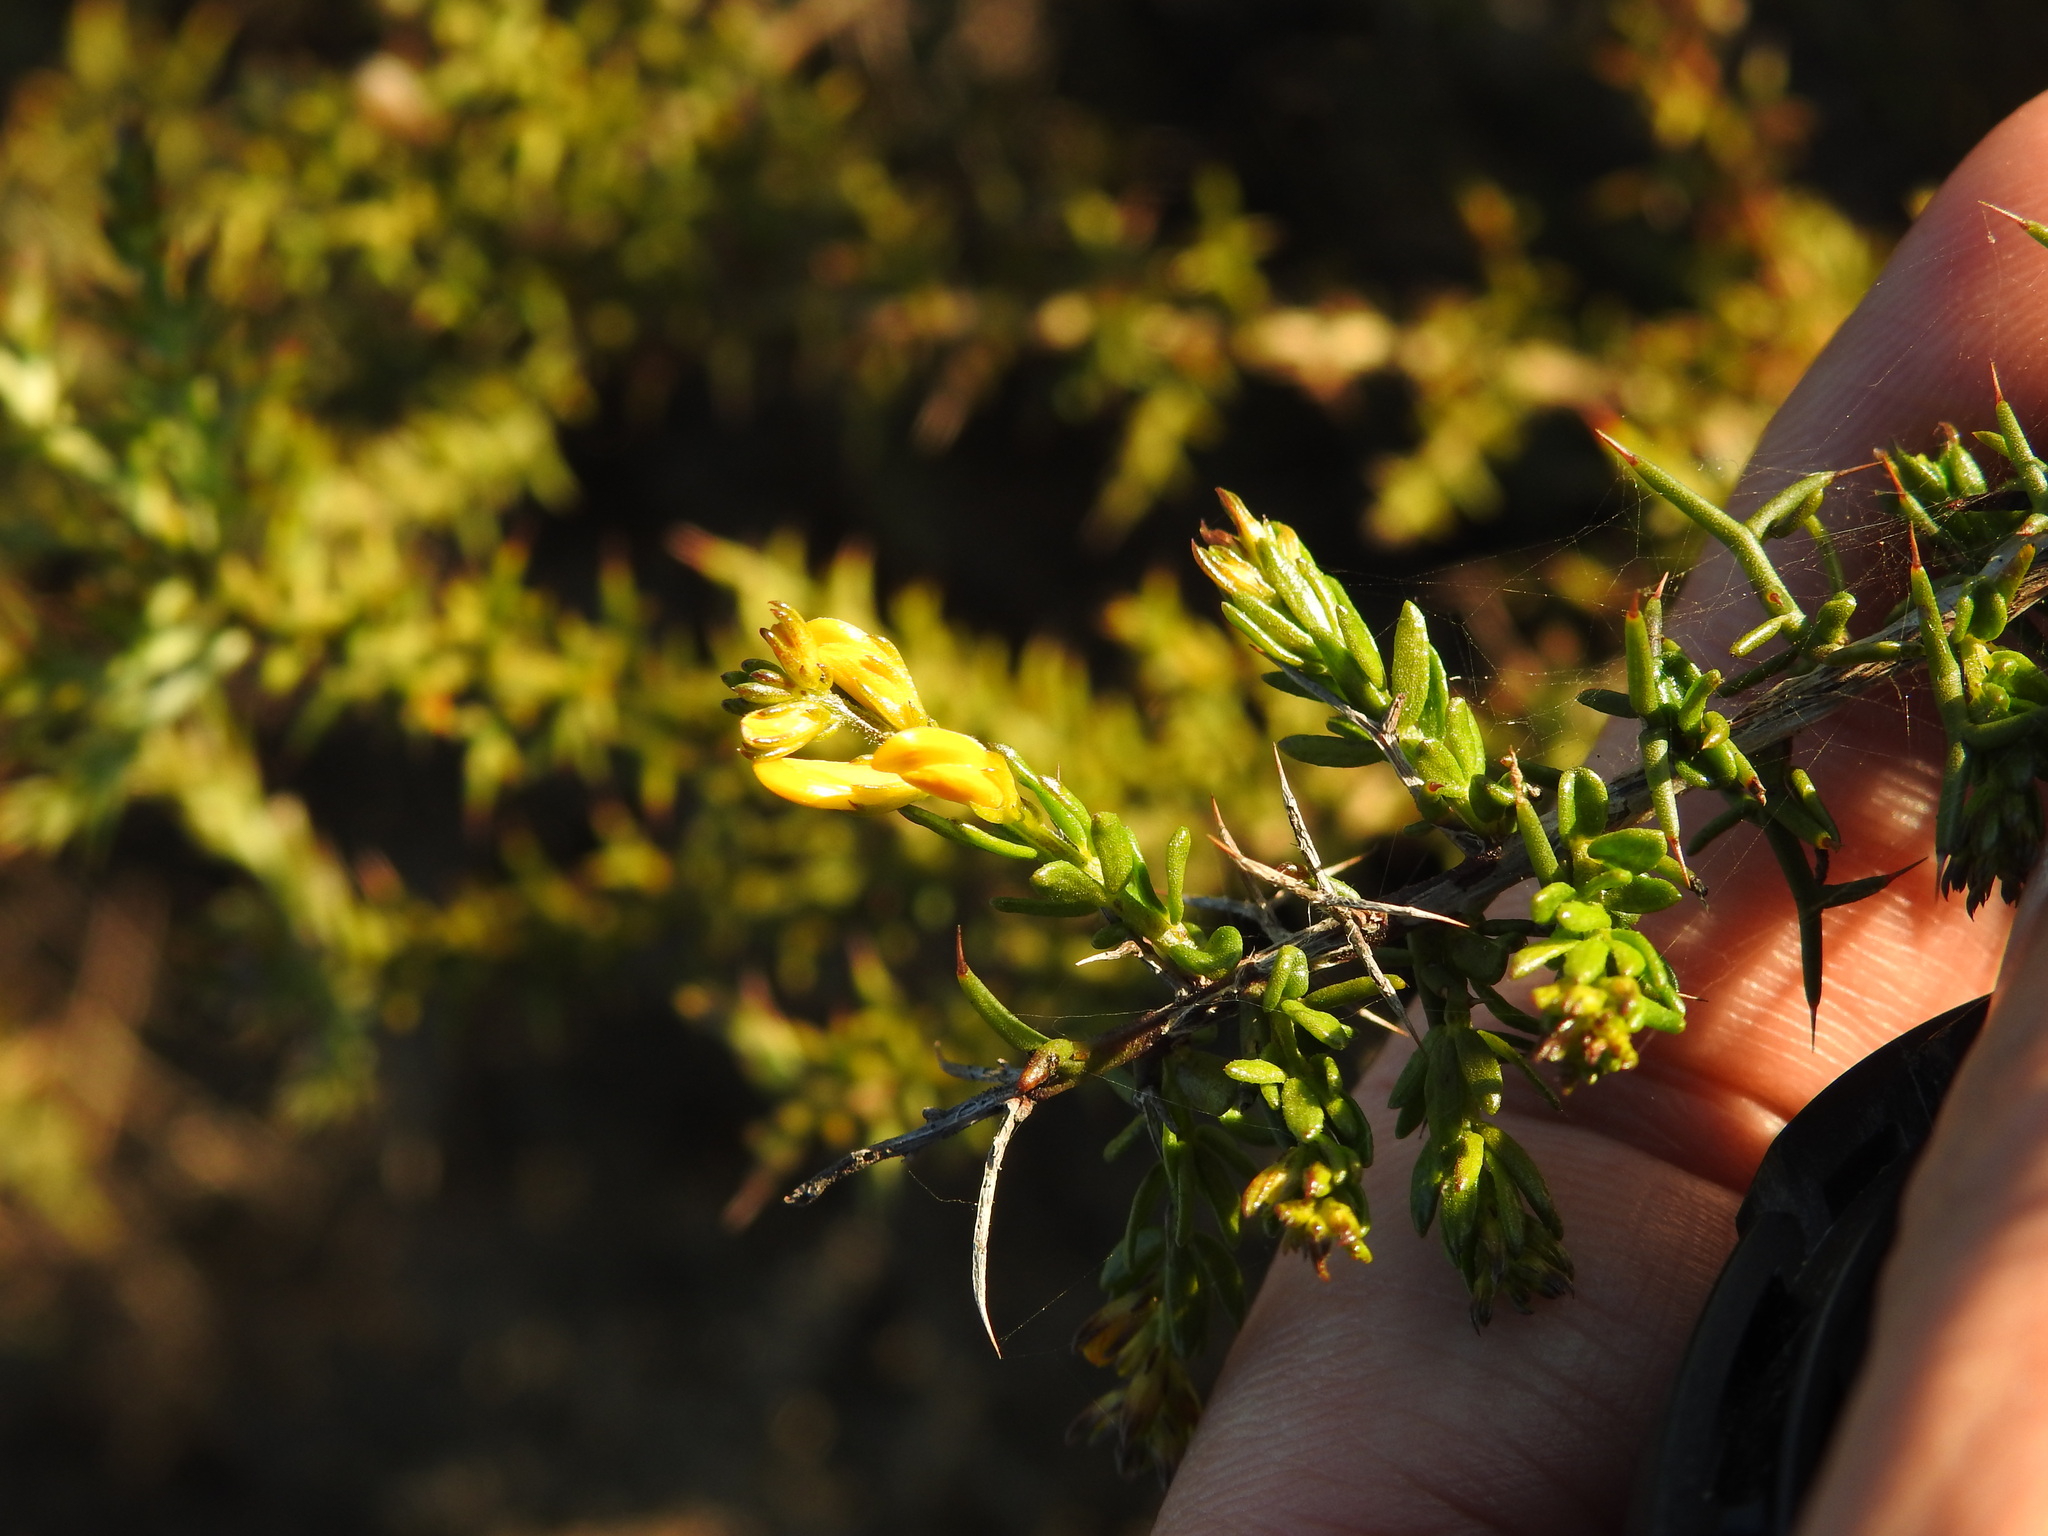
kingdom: Plantae
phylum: Tracheophyta
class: Magnoliopsida
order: Fabales
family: Fabaceae
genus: Genista
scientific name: Genista triacanthos
